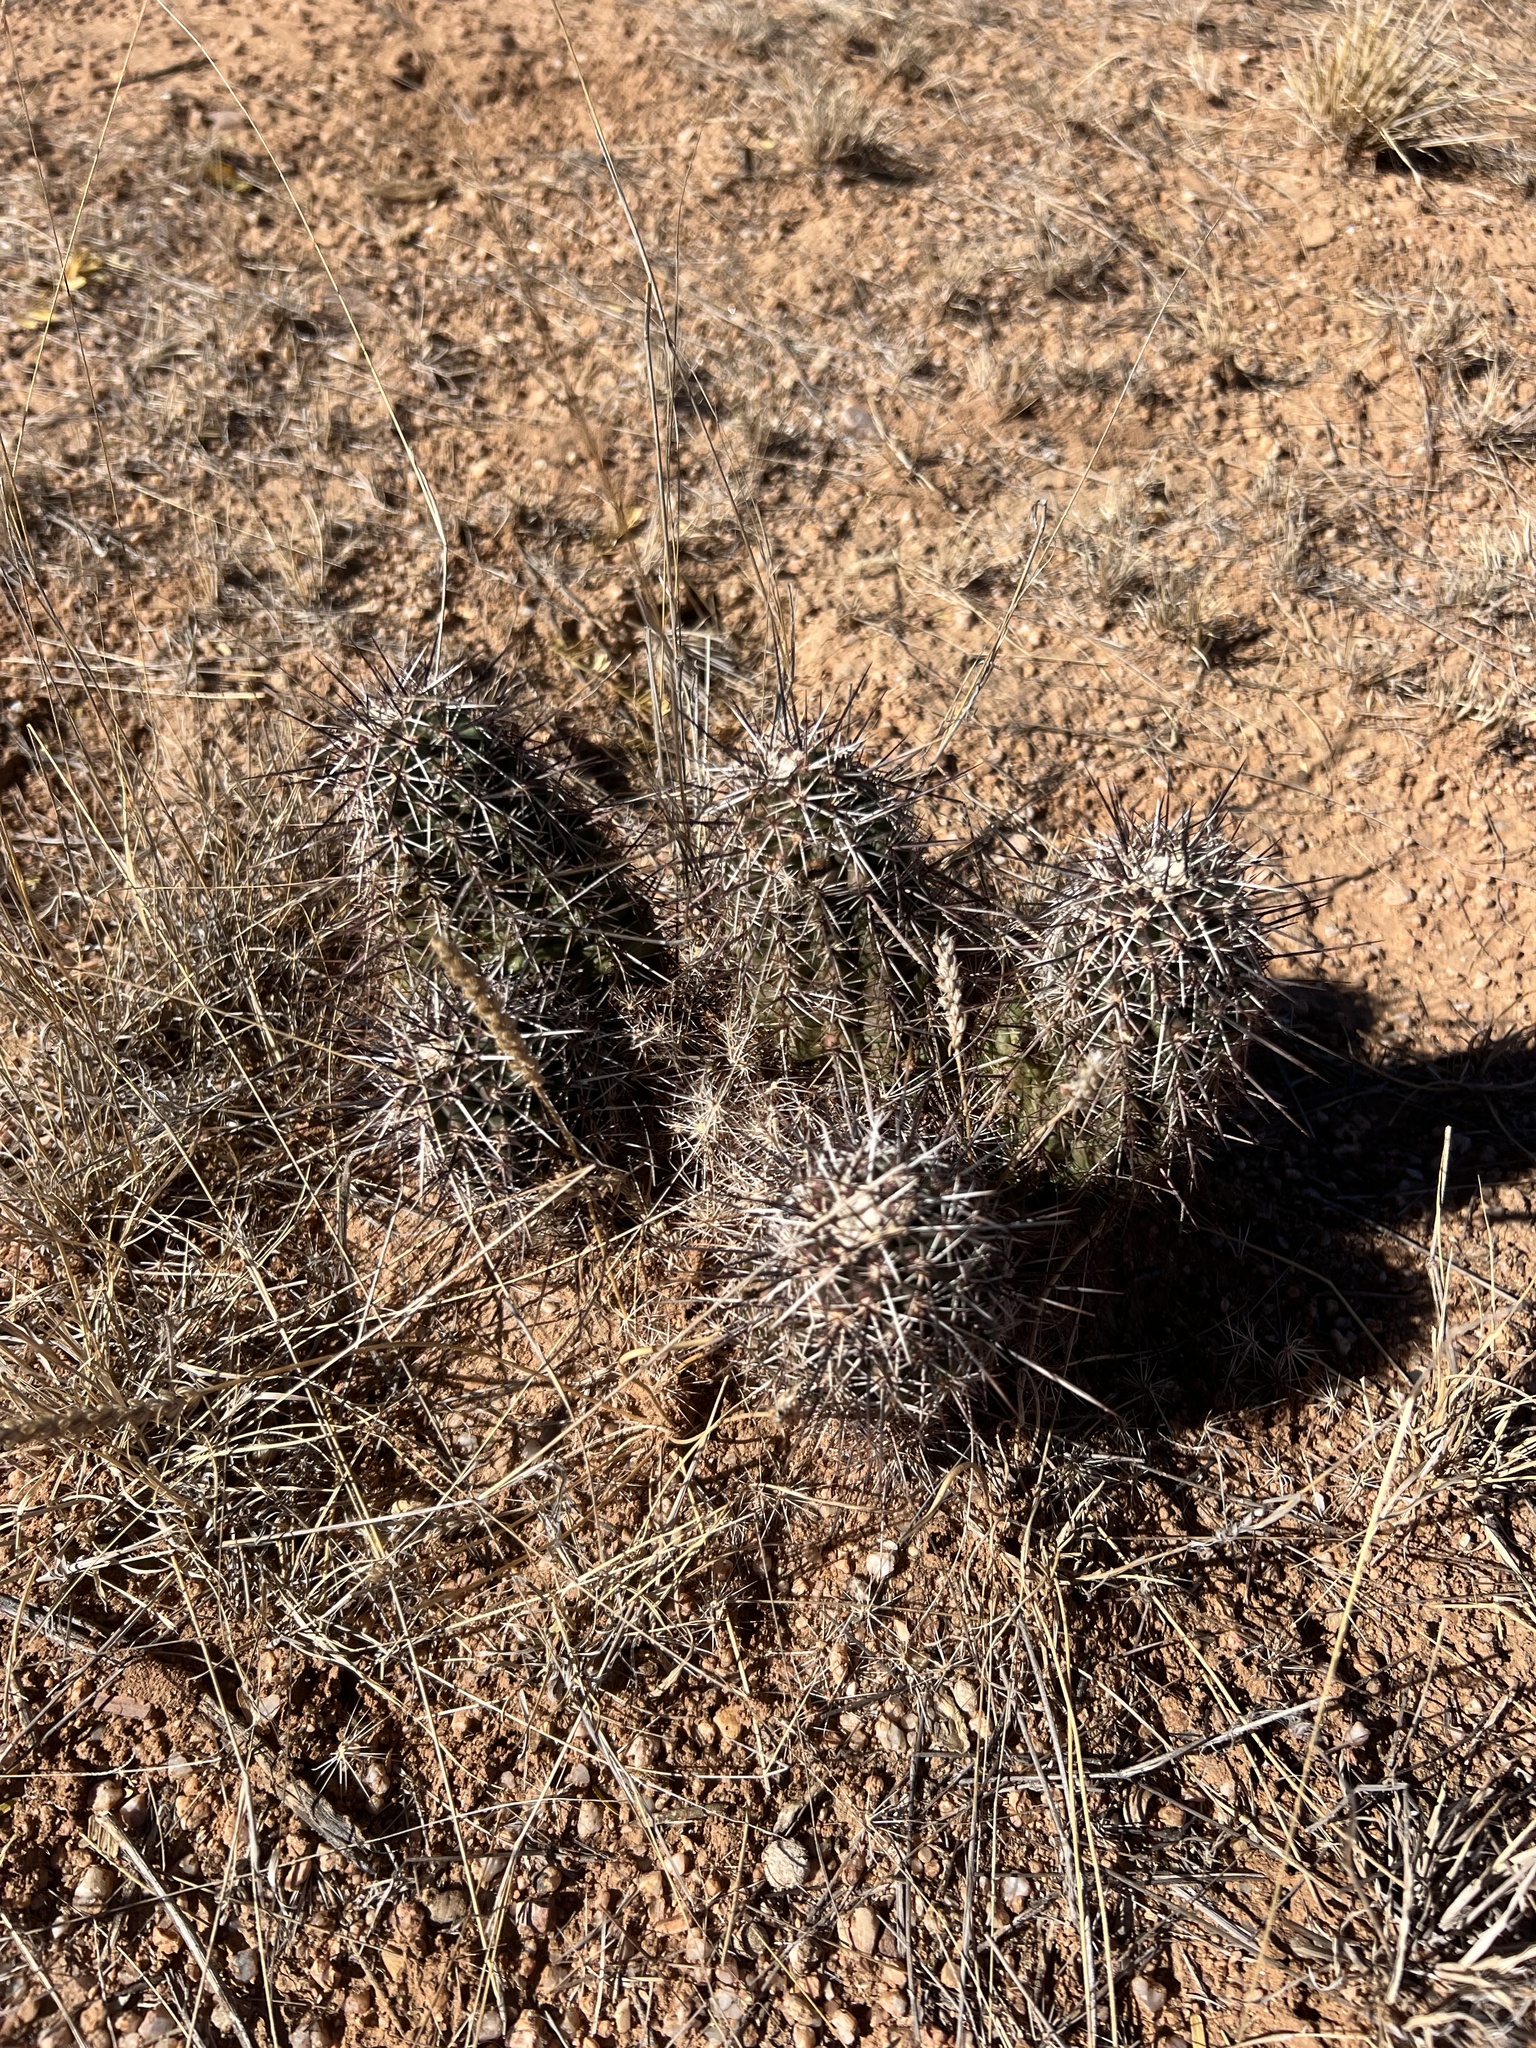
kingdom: Plantae
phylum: Tracheophyta
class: Magnoliopsida
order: Caryophyllales
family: Cactaceae
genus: Echinocereus
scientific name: Echinocereus fasciculatus
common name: Bundle hedgehog
